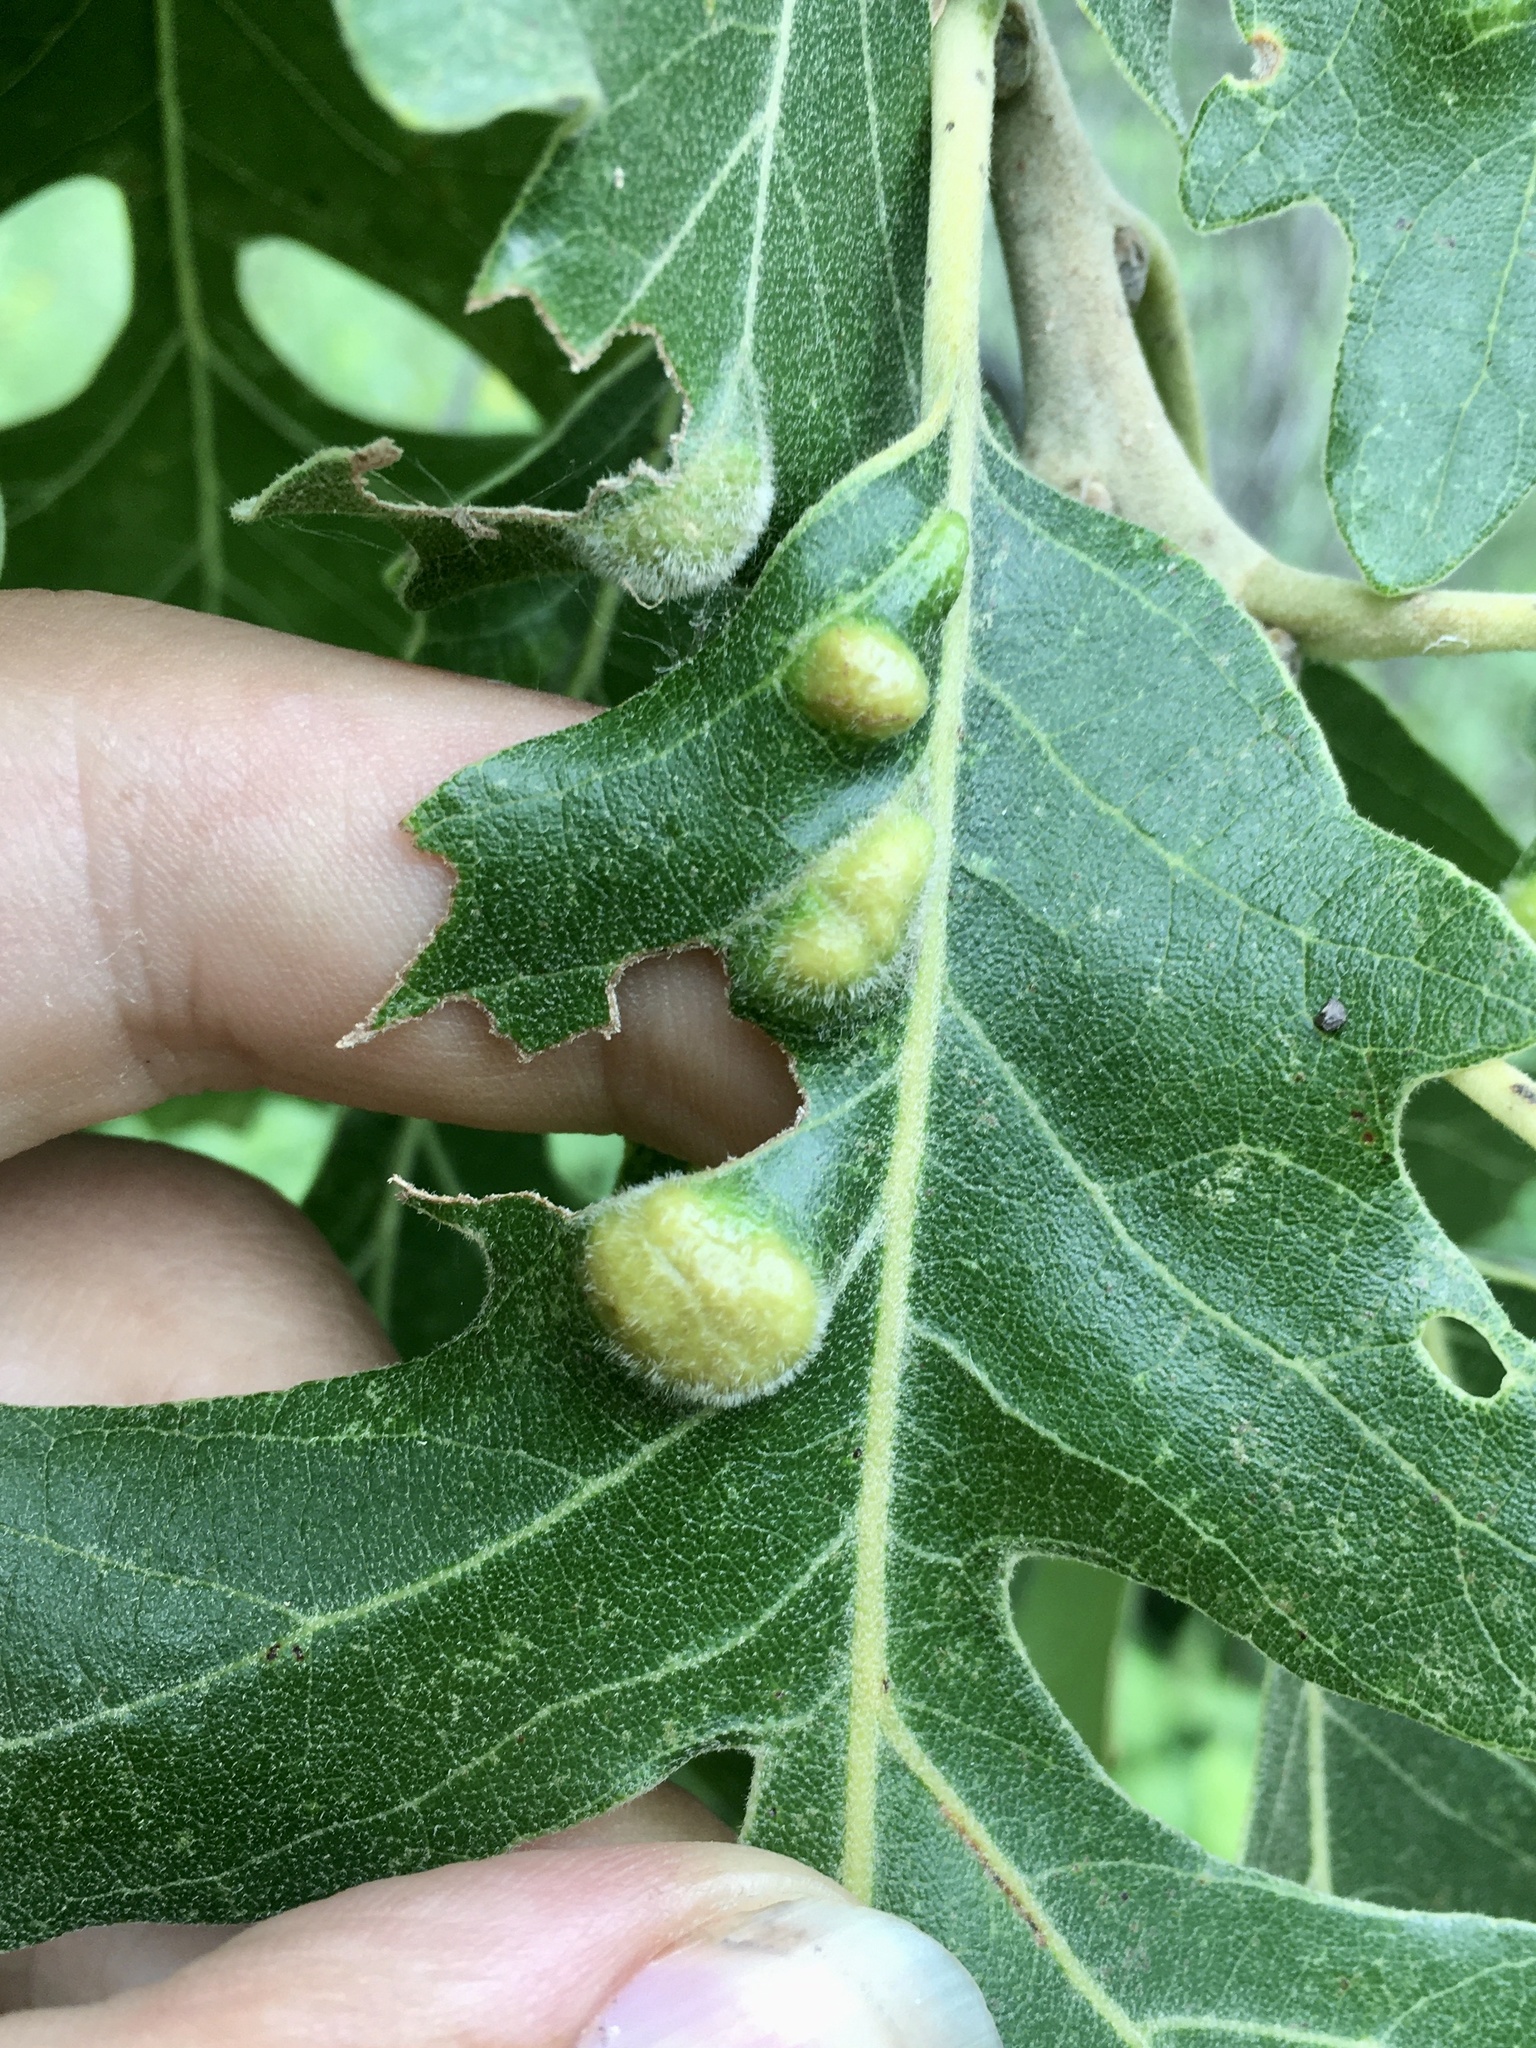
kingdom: Animalia
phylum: Arthropoda
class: Arachnida
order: Trombidiformes
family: Eriophyidae
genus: Aceria
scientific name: Aceria quercina
